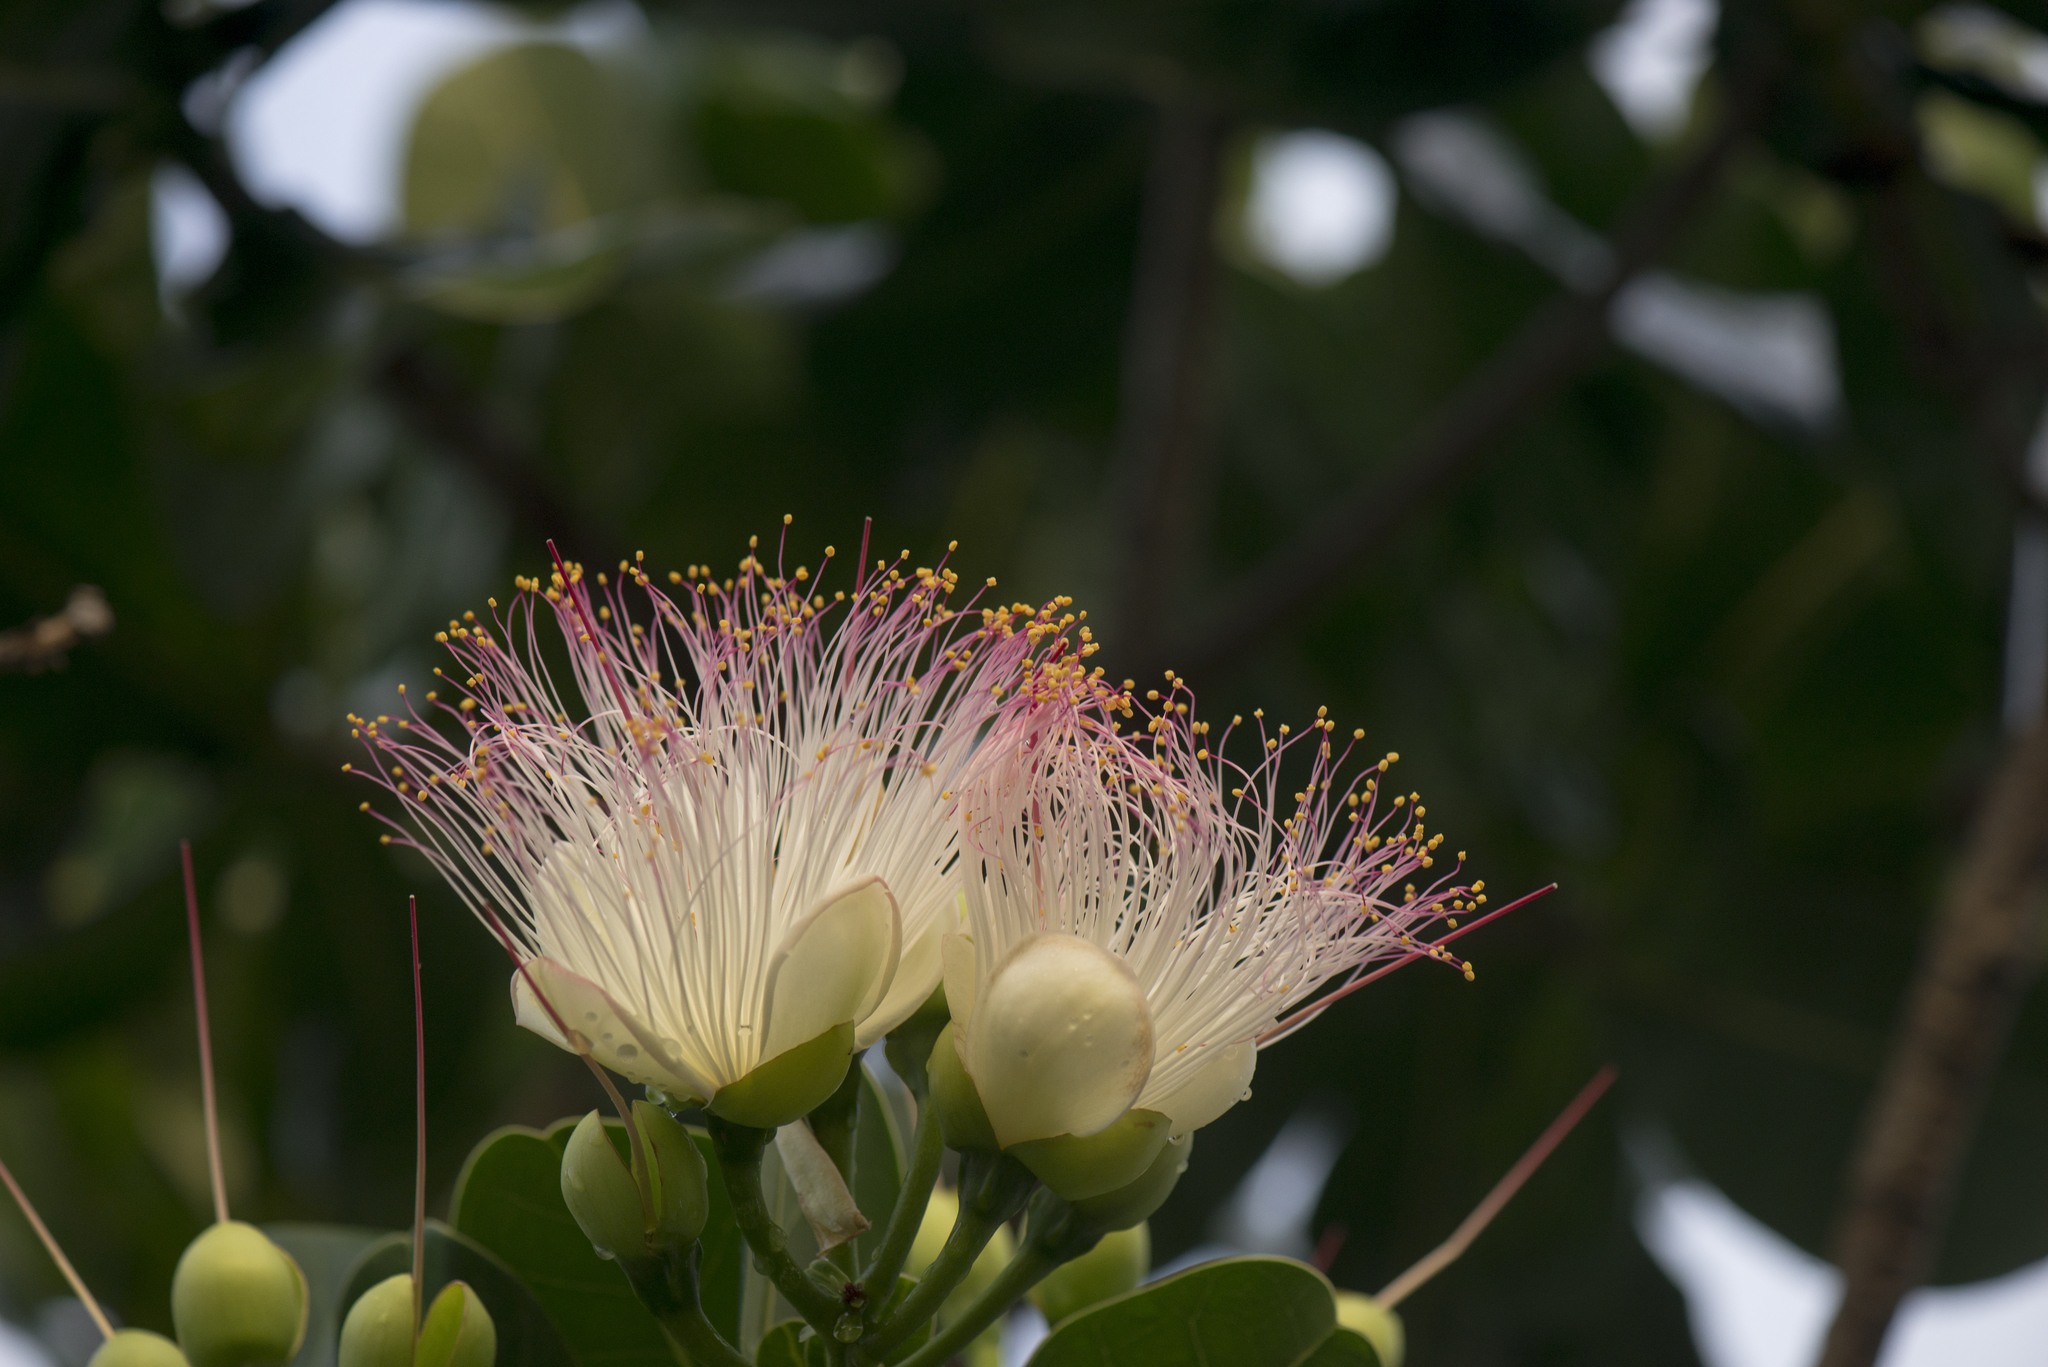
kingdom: Plantae
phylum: Tracheophyta
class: Magnoliopsida
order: Ericales
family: Lecythidaceae
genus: Barringtonia
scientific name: Barringtonia asiatica
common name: Mango-pine
